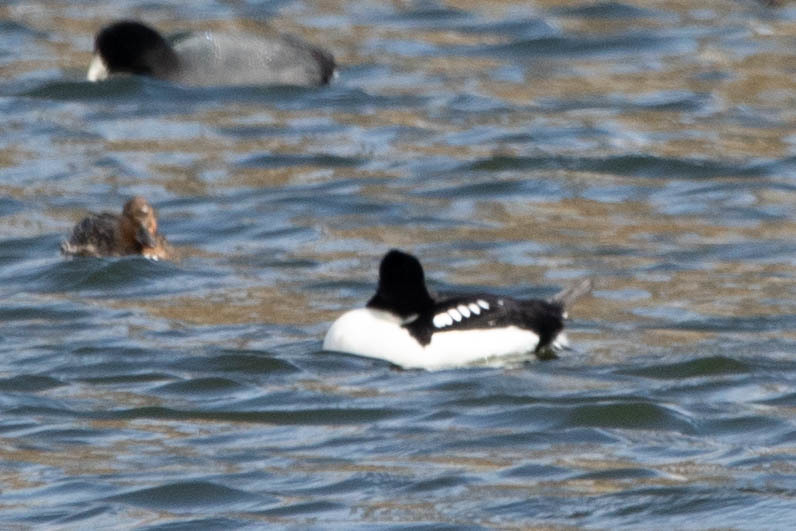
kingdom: Animalia
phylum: Chordata
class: Aves
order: Anseriformes
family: Anatidae
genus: Bucephala
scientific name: Bucephala islandica
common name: Barrow's goldeneye
